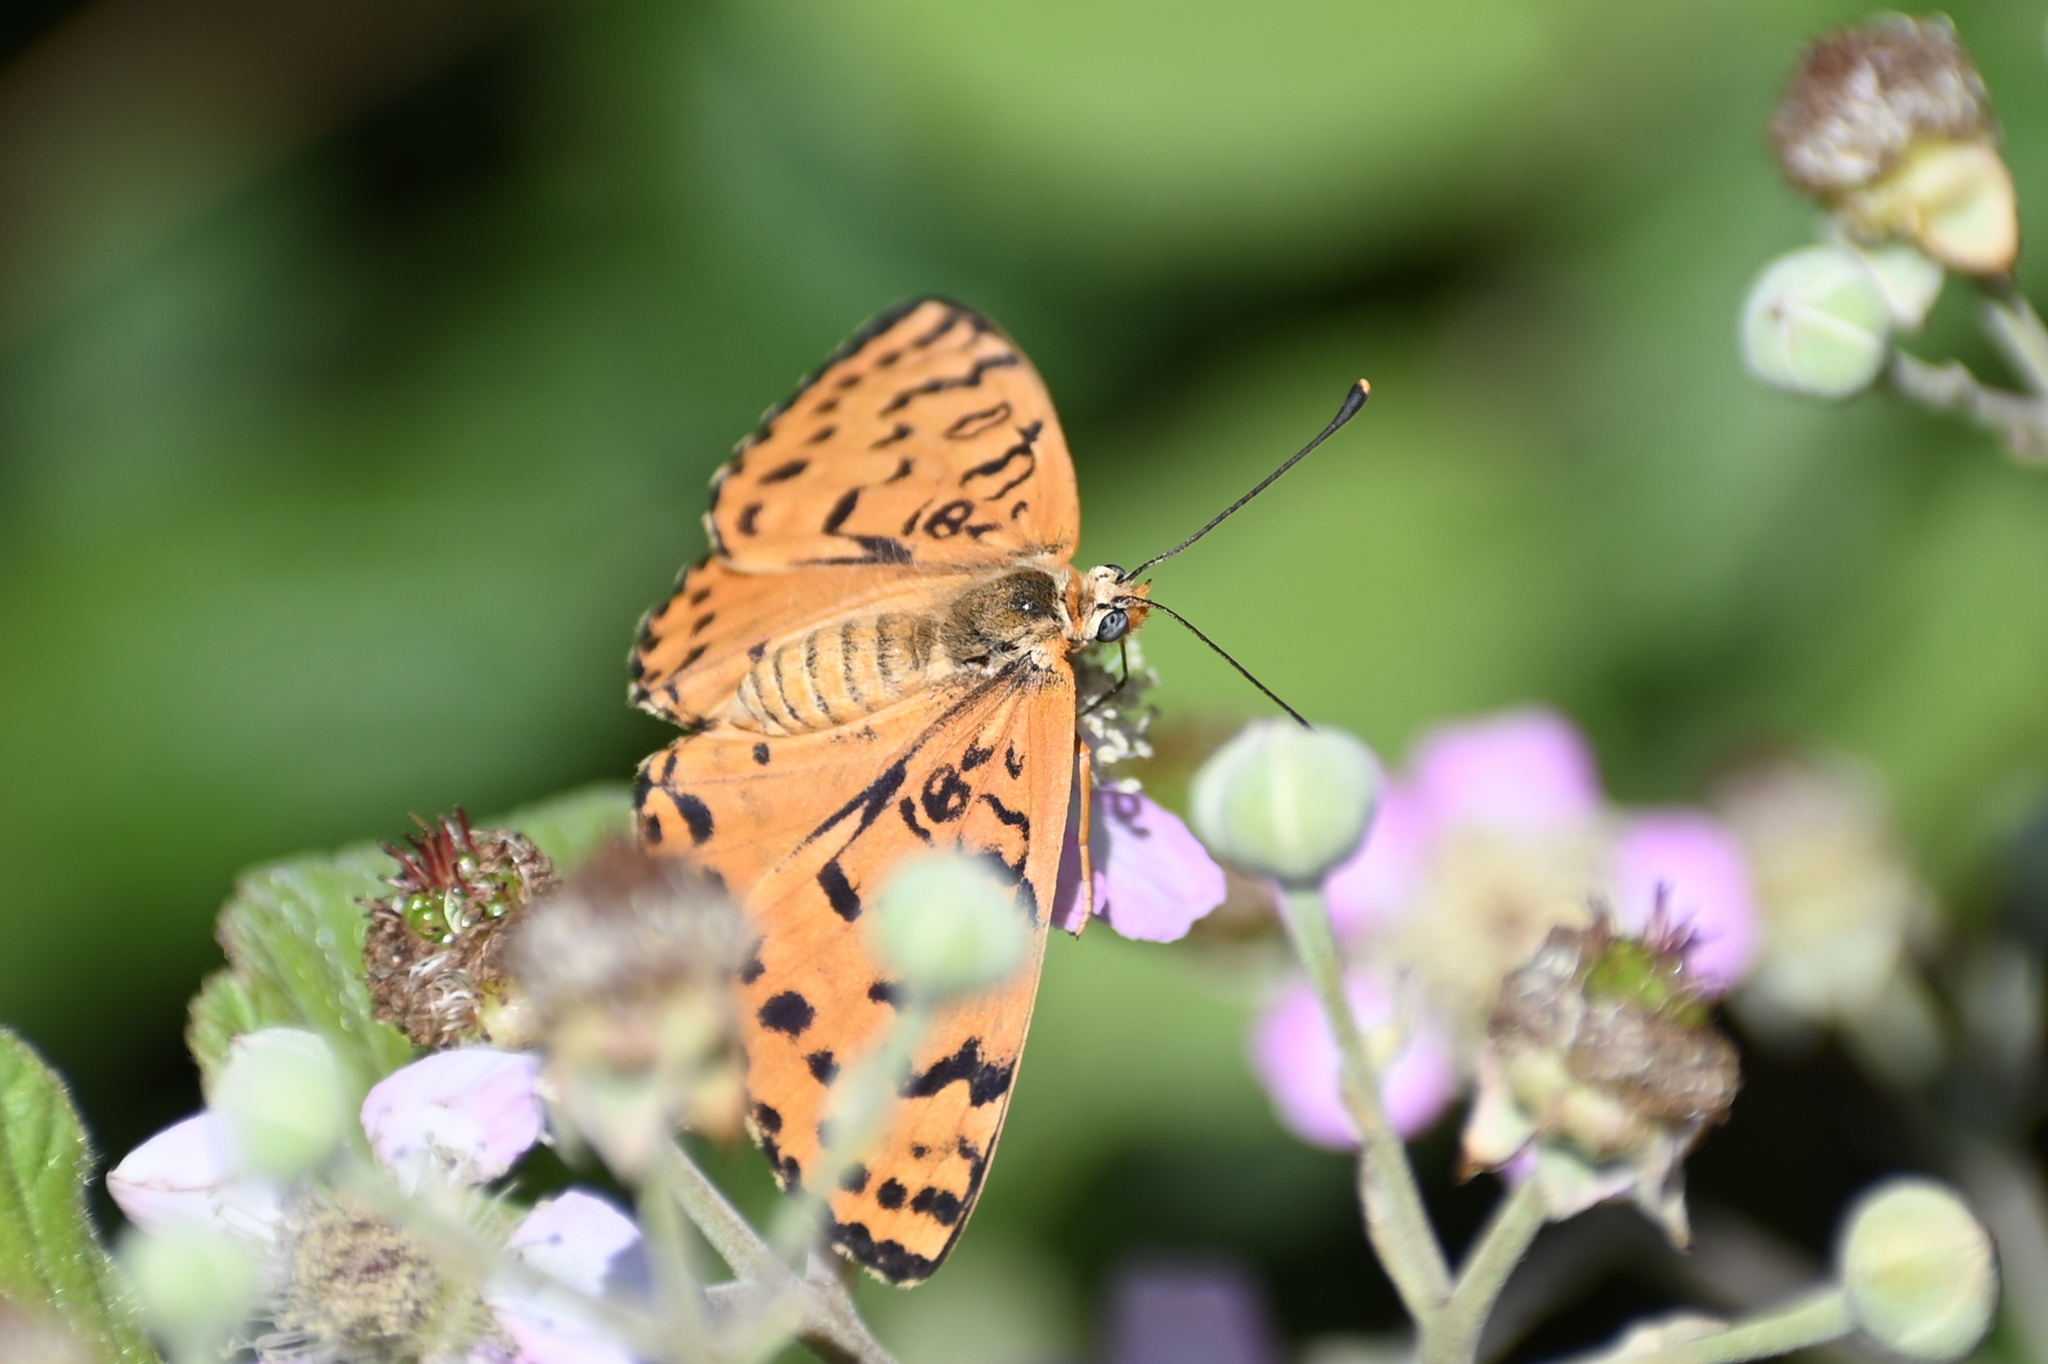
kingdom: Animalia
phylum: Arthropoda
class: Insecta
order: Lepidoptera
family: Nymphalidae
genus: Melitaea
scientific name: Melitaea didyma
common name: Spotted fritillary
